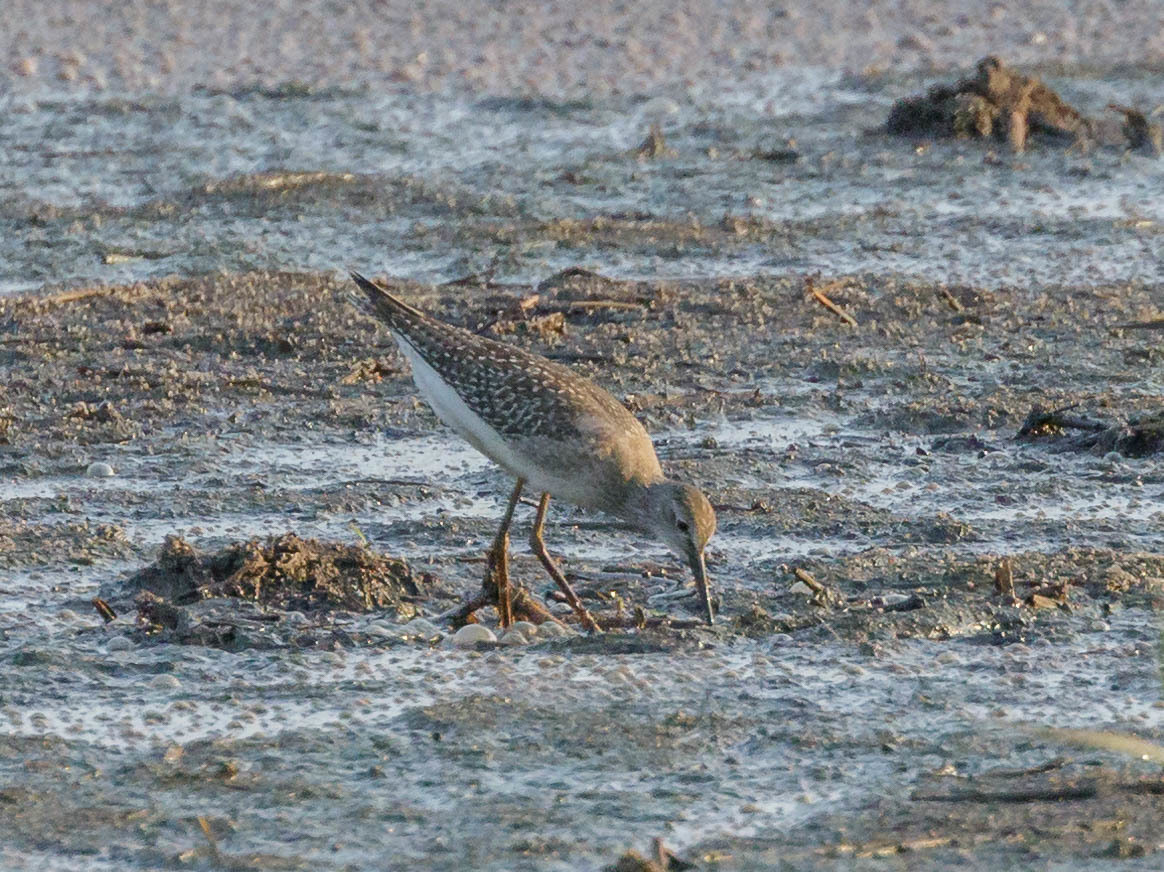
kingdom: Animalia
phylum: Chordata
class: Aves
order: Charadriiformes
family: Scolopacidae
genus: Tringa
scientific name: Tringa flavipes
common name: Lesser yellowlegs
